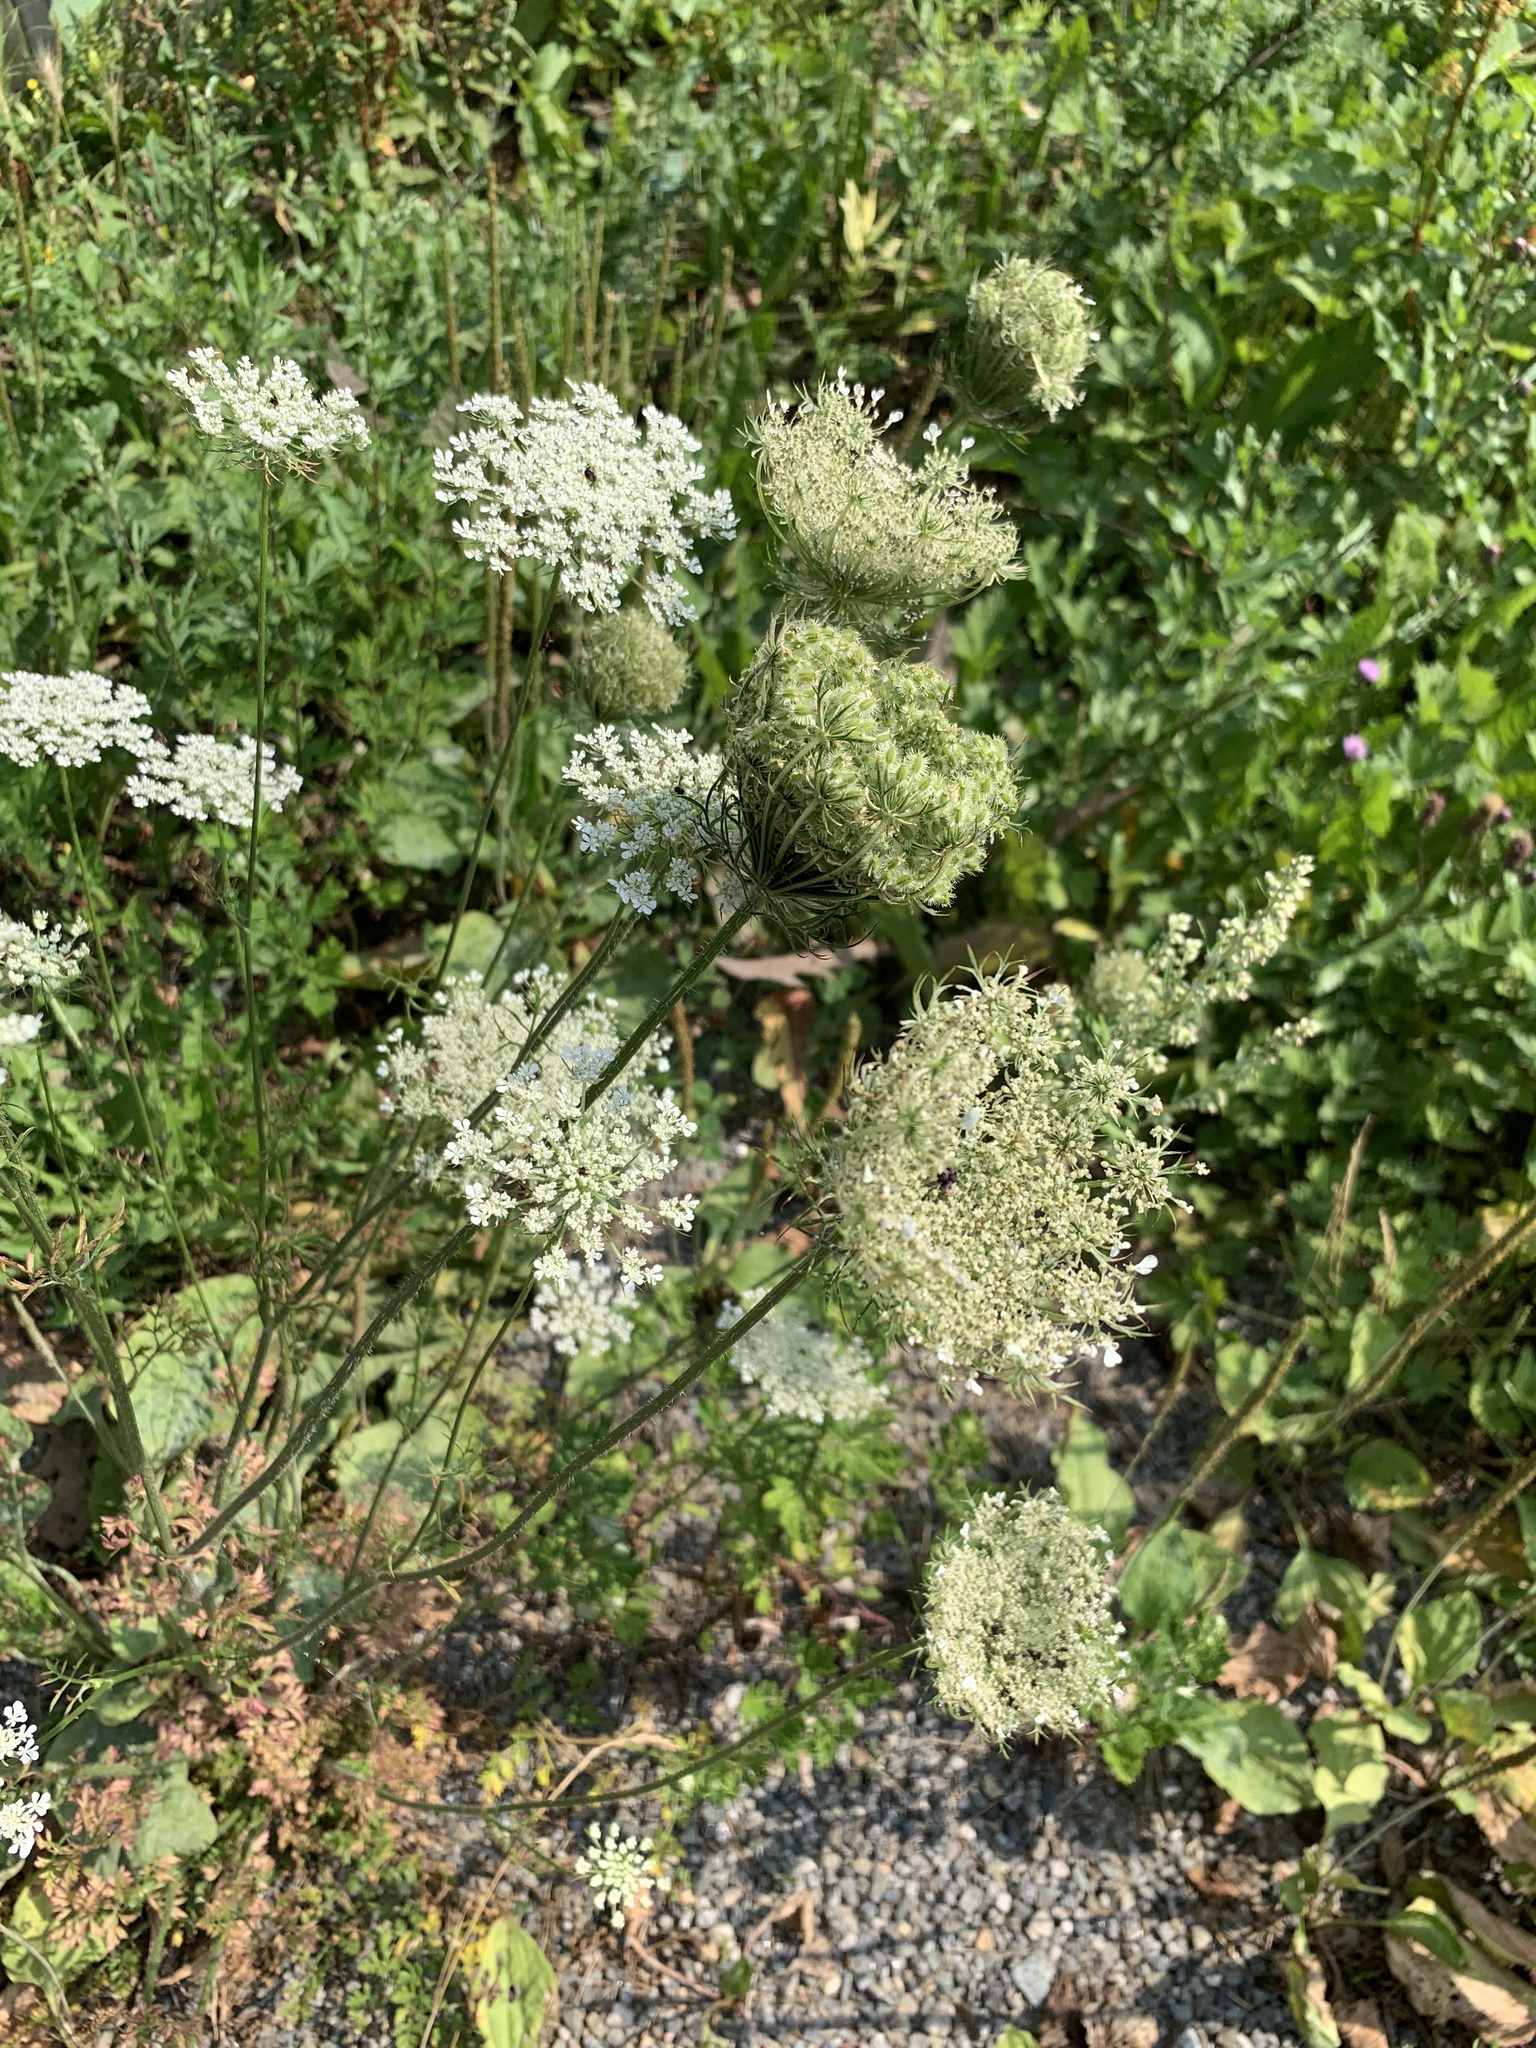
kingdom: Plantae
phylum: Tracheophyta
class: Magnoliopsida
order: Apiales
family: Apiaceae
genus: Daucus
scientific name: Daucus carota
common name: Wild carrot
